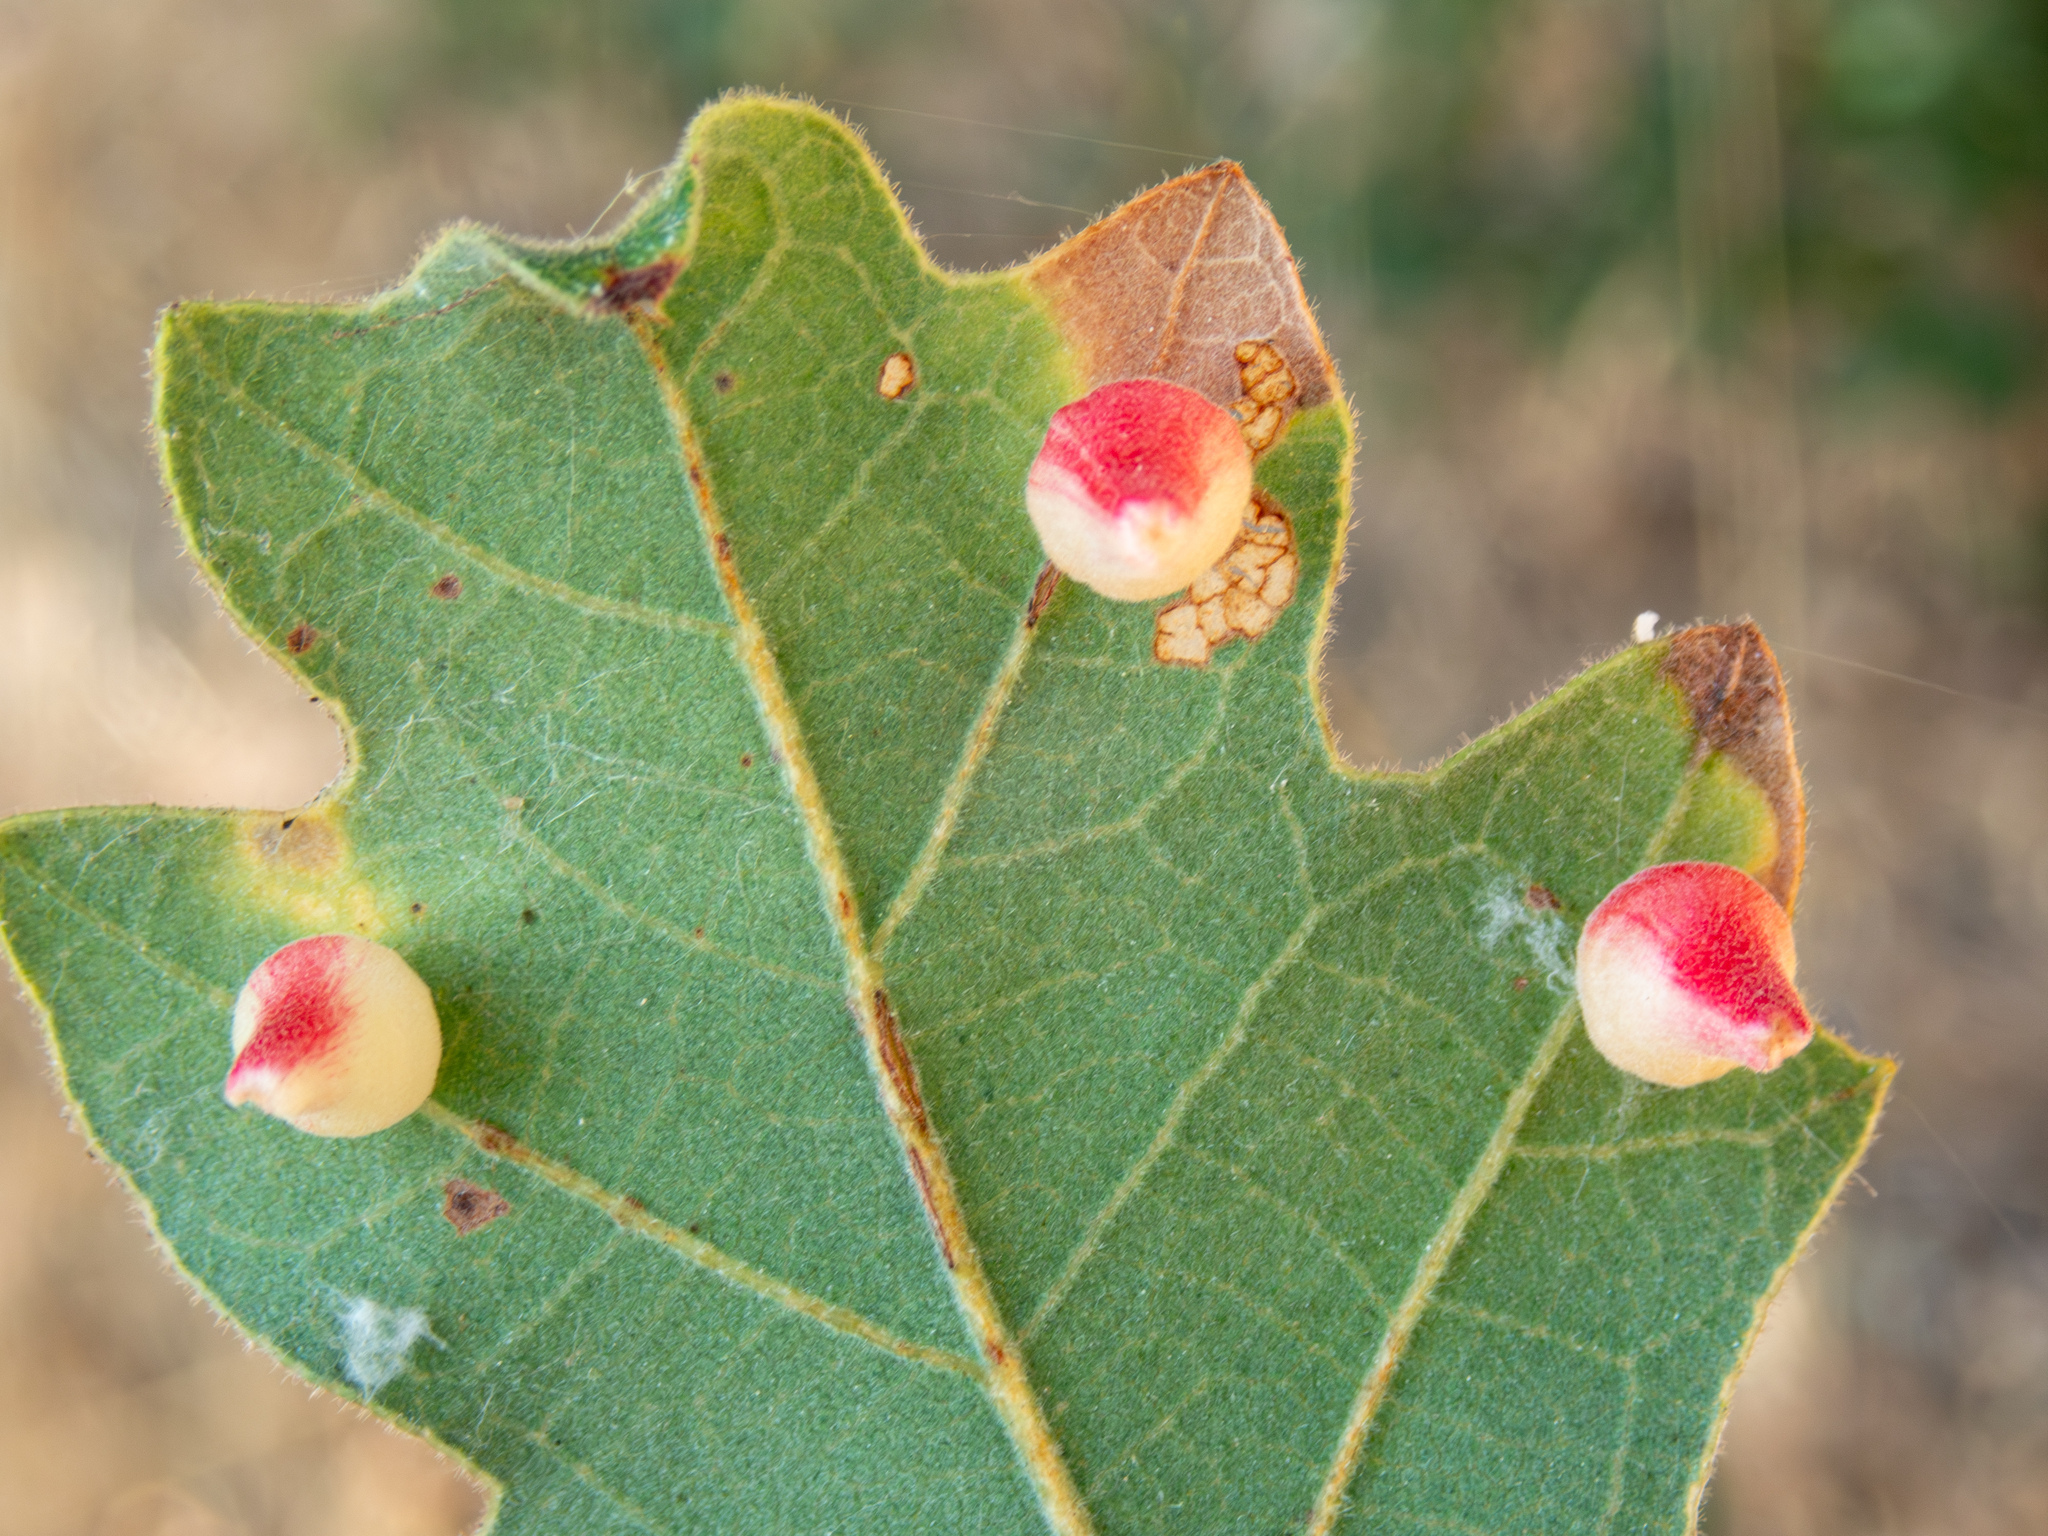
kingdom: Animalia
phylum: Arthropoda
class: Insecta
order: Hymenoptera
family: Cynipidae
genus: Andricus
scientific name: Andricus
